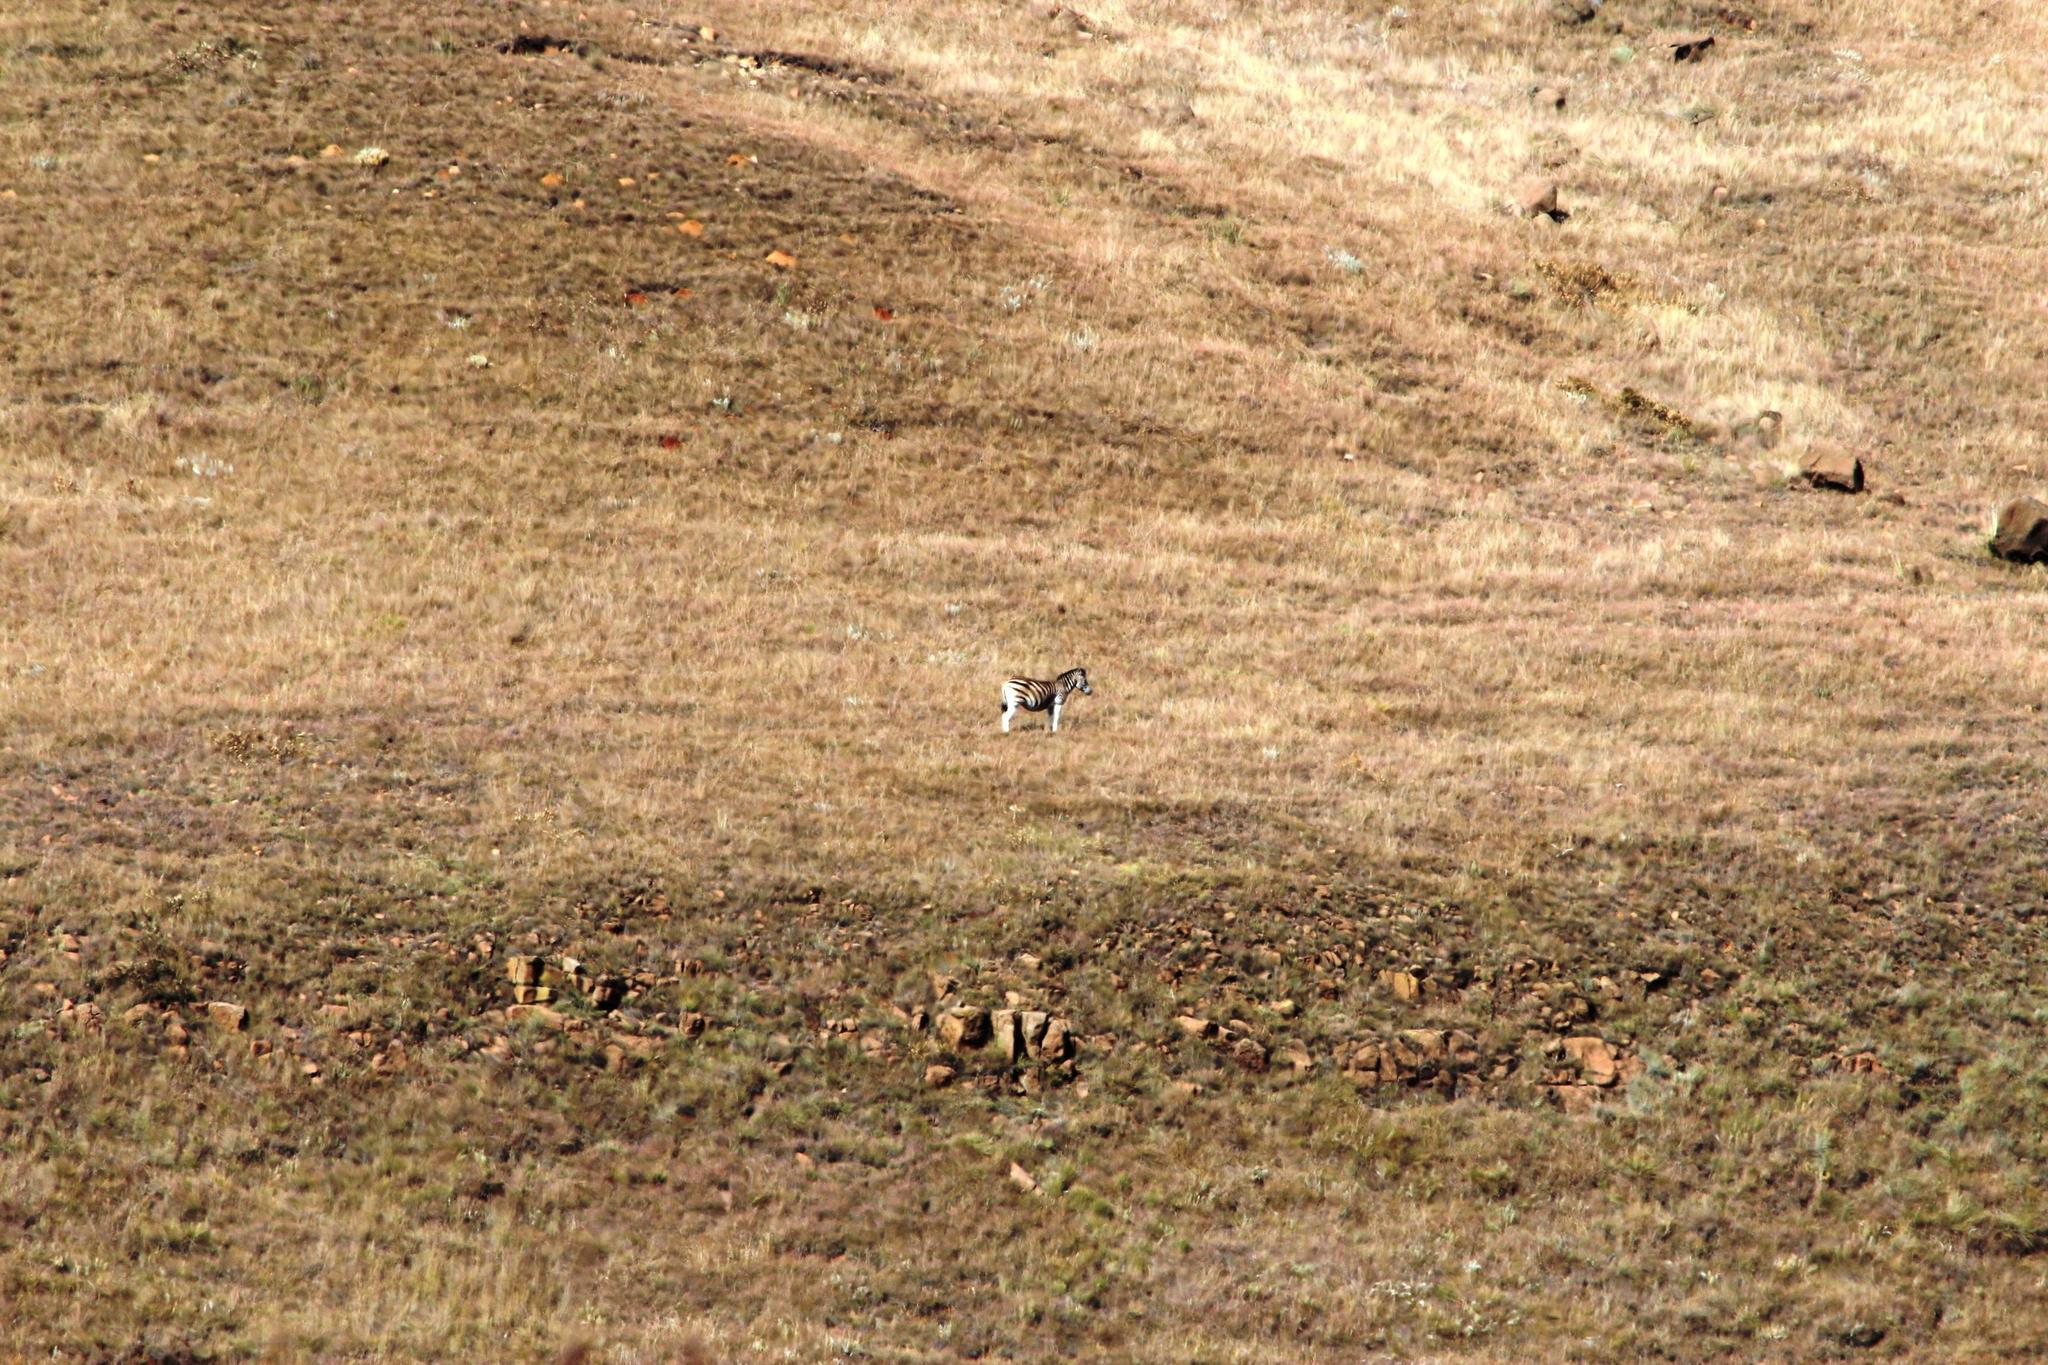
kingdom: Animalia
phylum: Chordata
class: Mammalia
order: Perissodactyla
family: Equidae
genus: Equus
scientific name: Equus quagga
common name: Plains zebra
